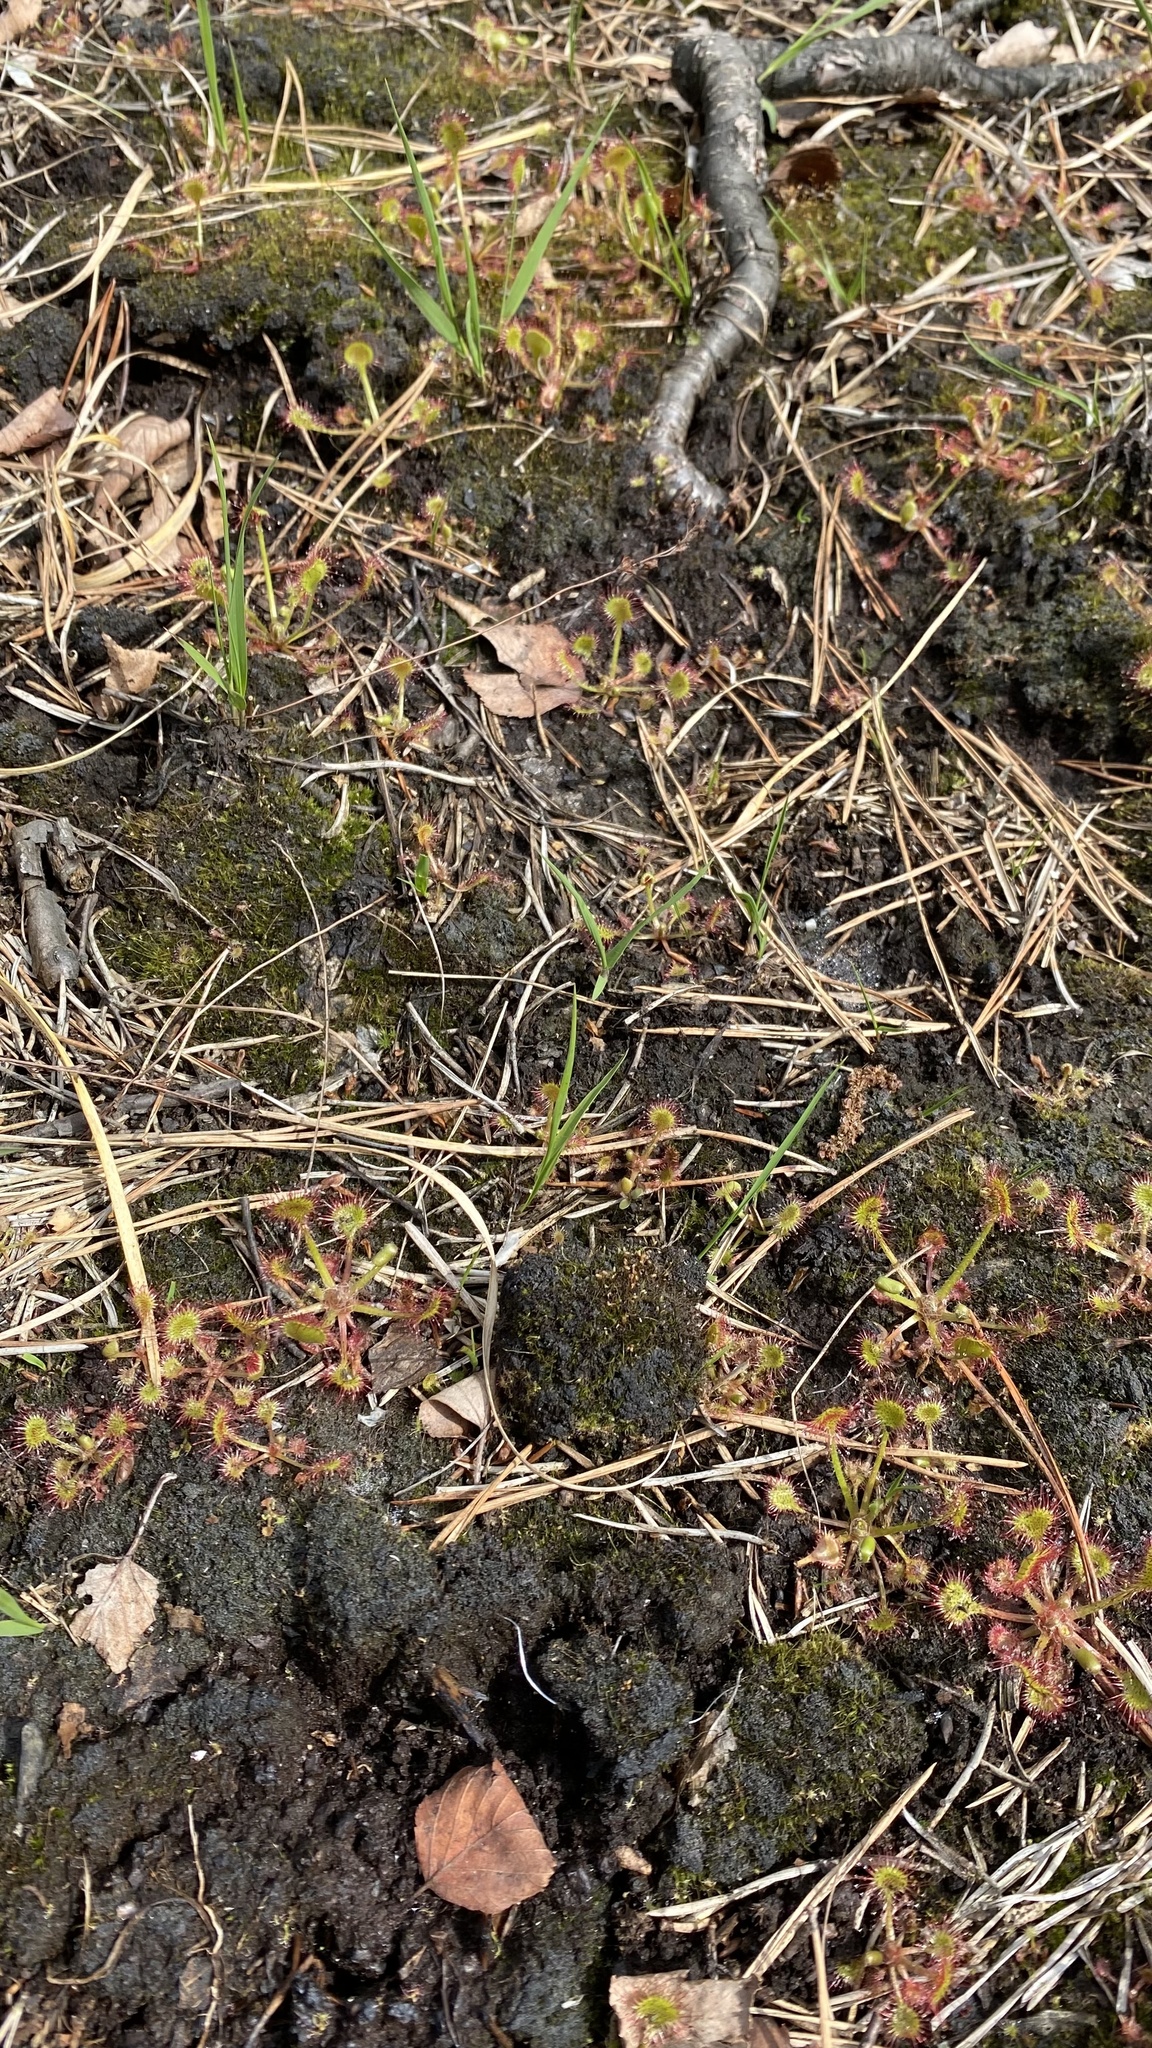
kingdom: Plantae
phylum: Tracheophyta
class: Magnoliopsida
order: Caryophyllales
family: Droseraceae
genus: Drosera
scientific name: Drosera rotundifolia
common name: Round-leaved sundew
